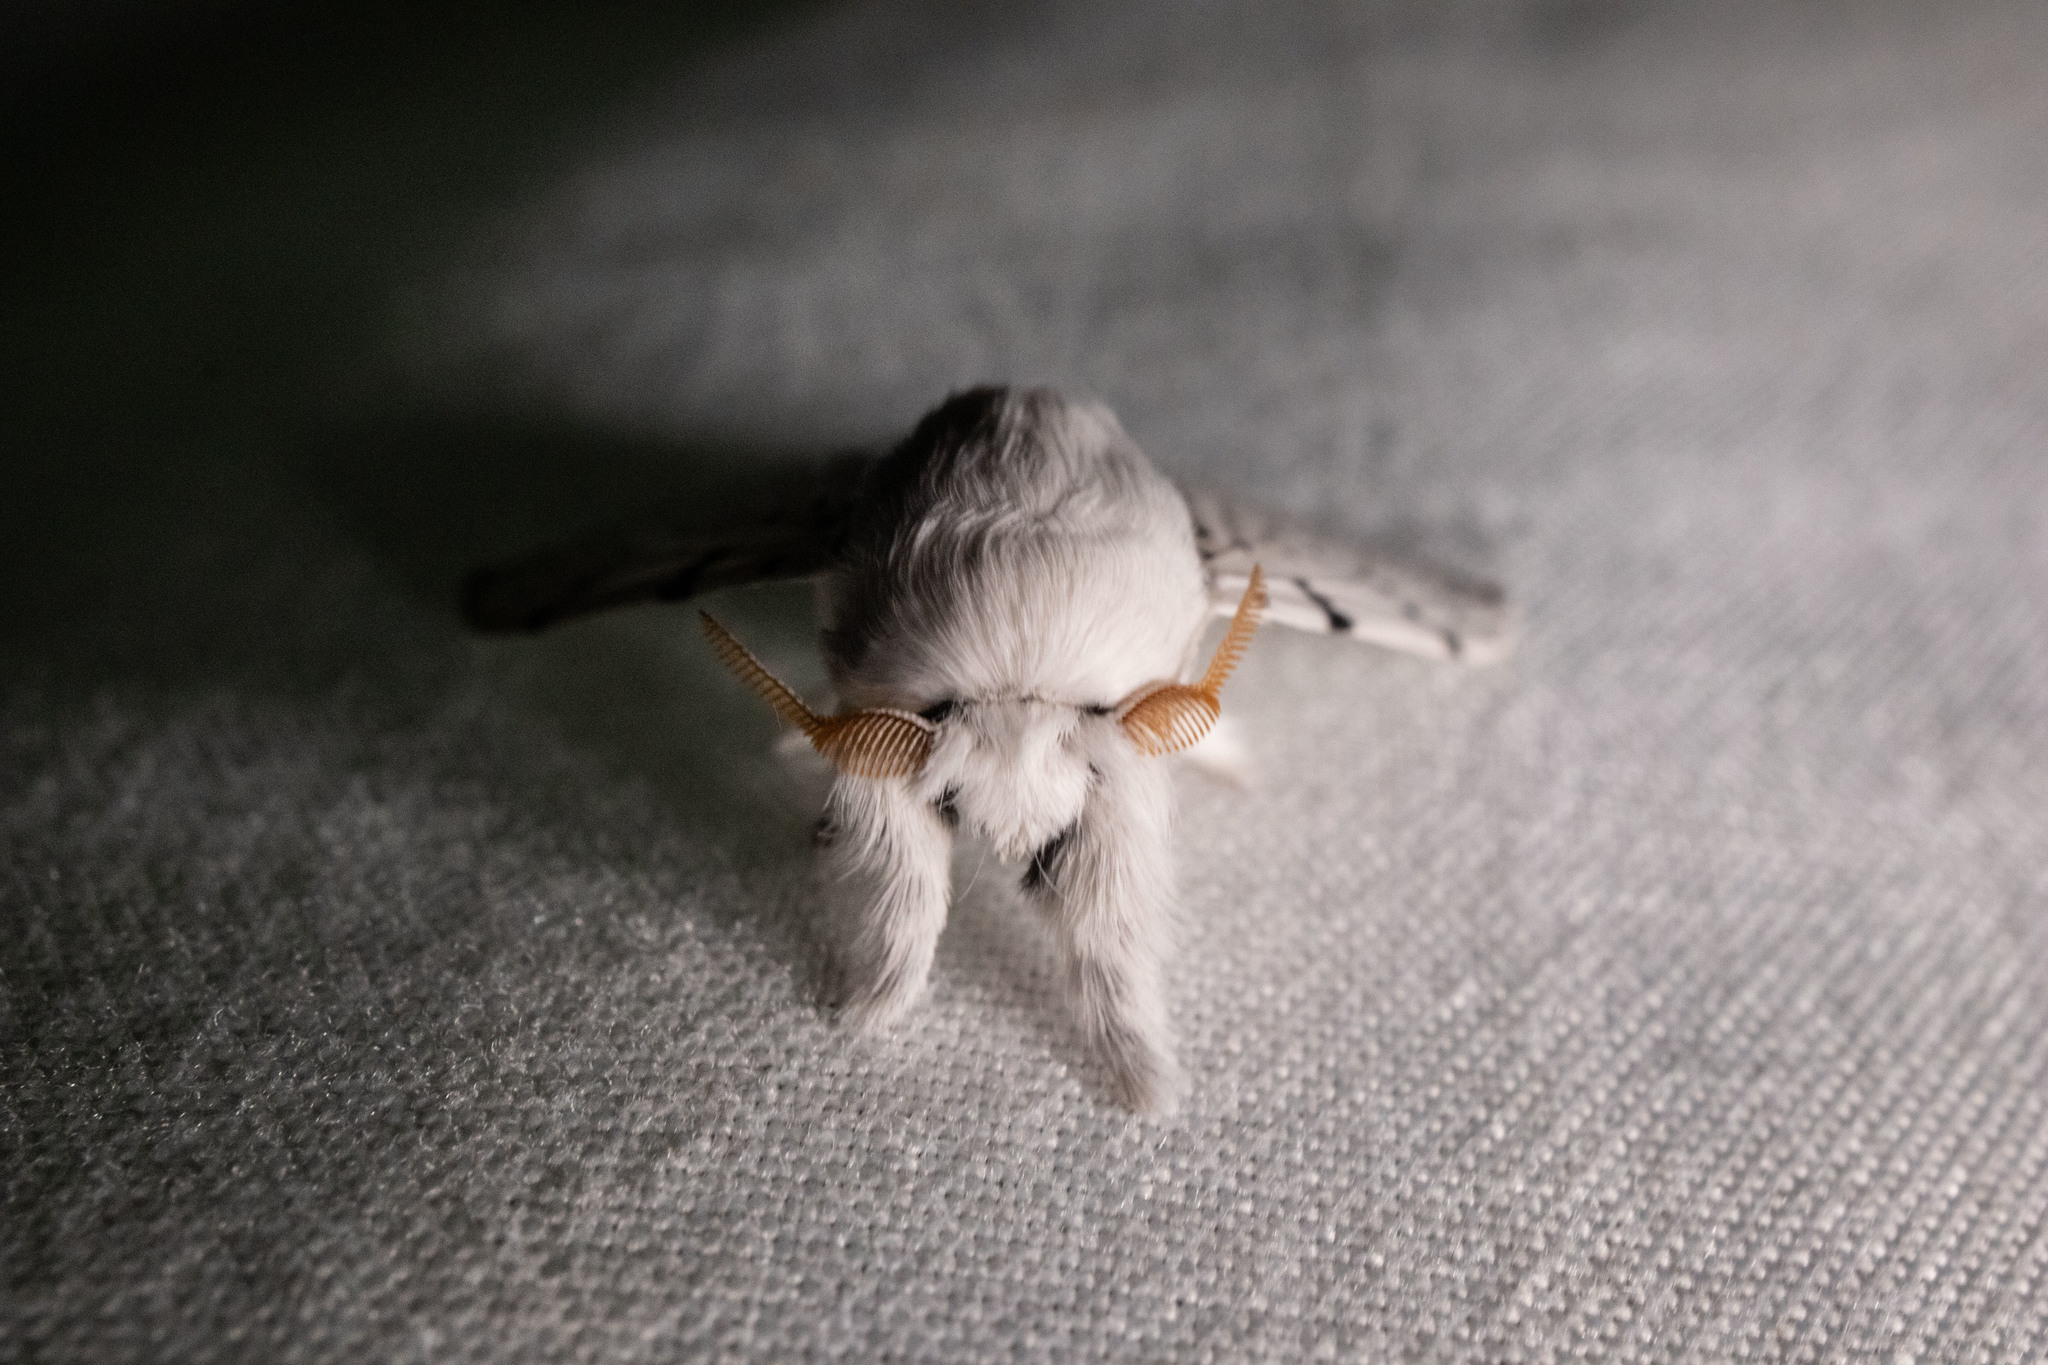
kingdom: Animalia
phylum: Arthropoda
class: Insecta
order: Lepidoptera
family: Lasiocampidae
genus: Artace
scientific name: Artace cribrarius
